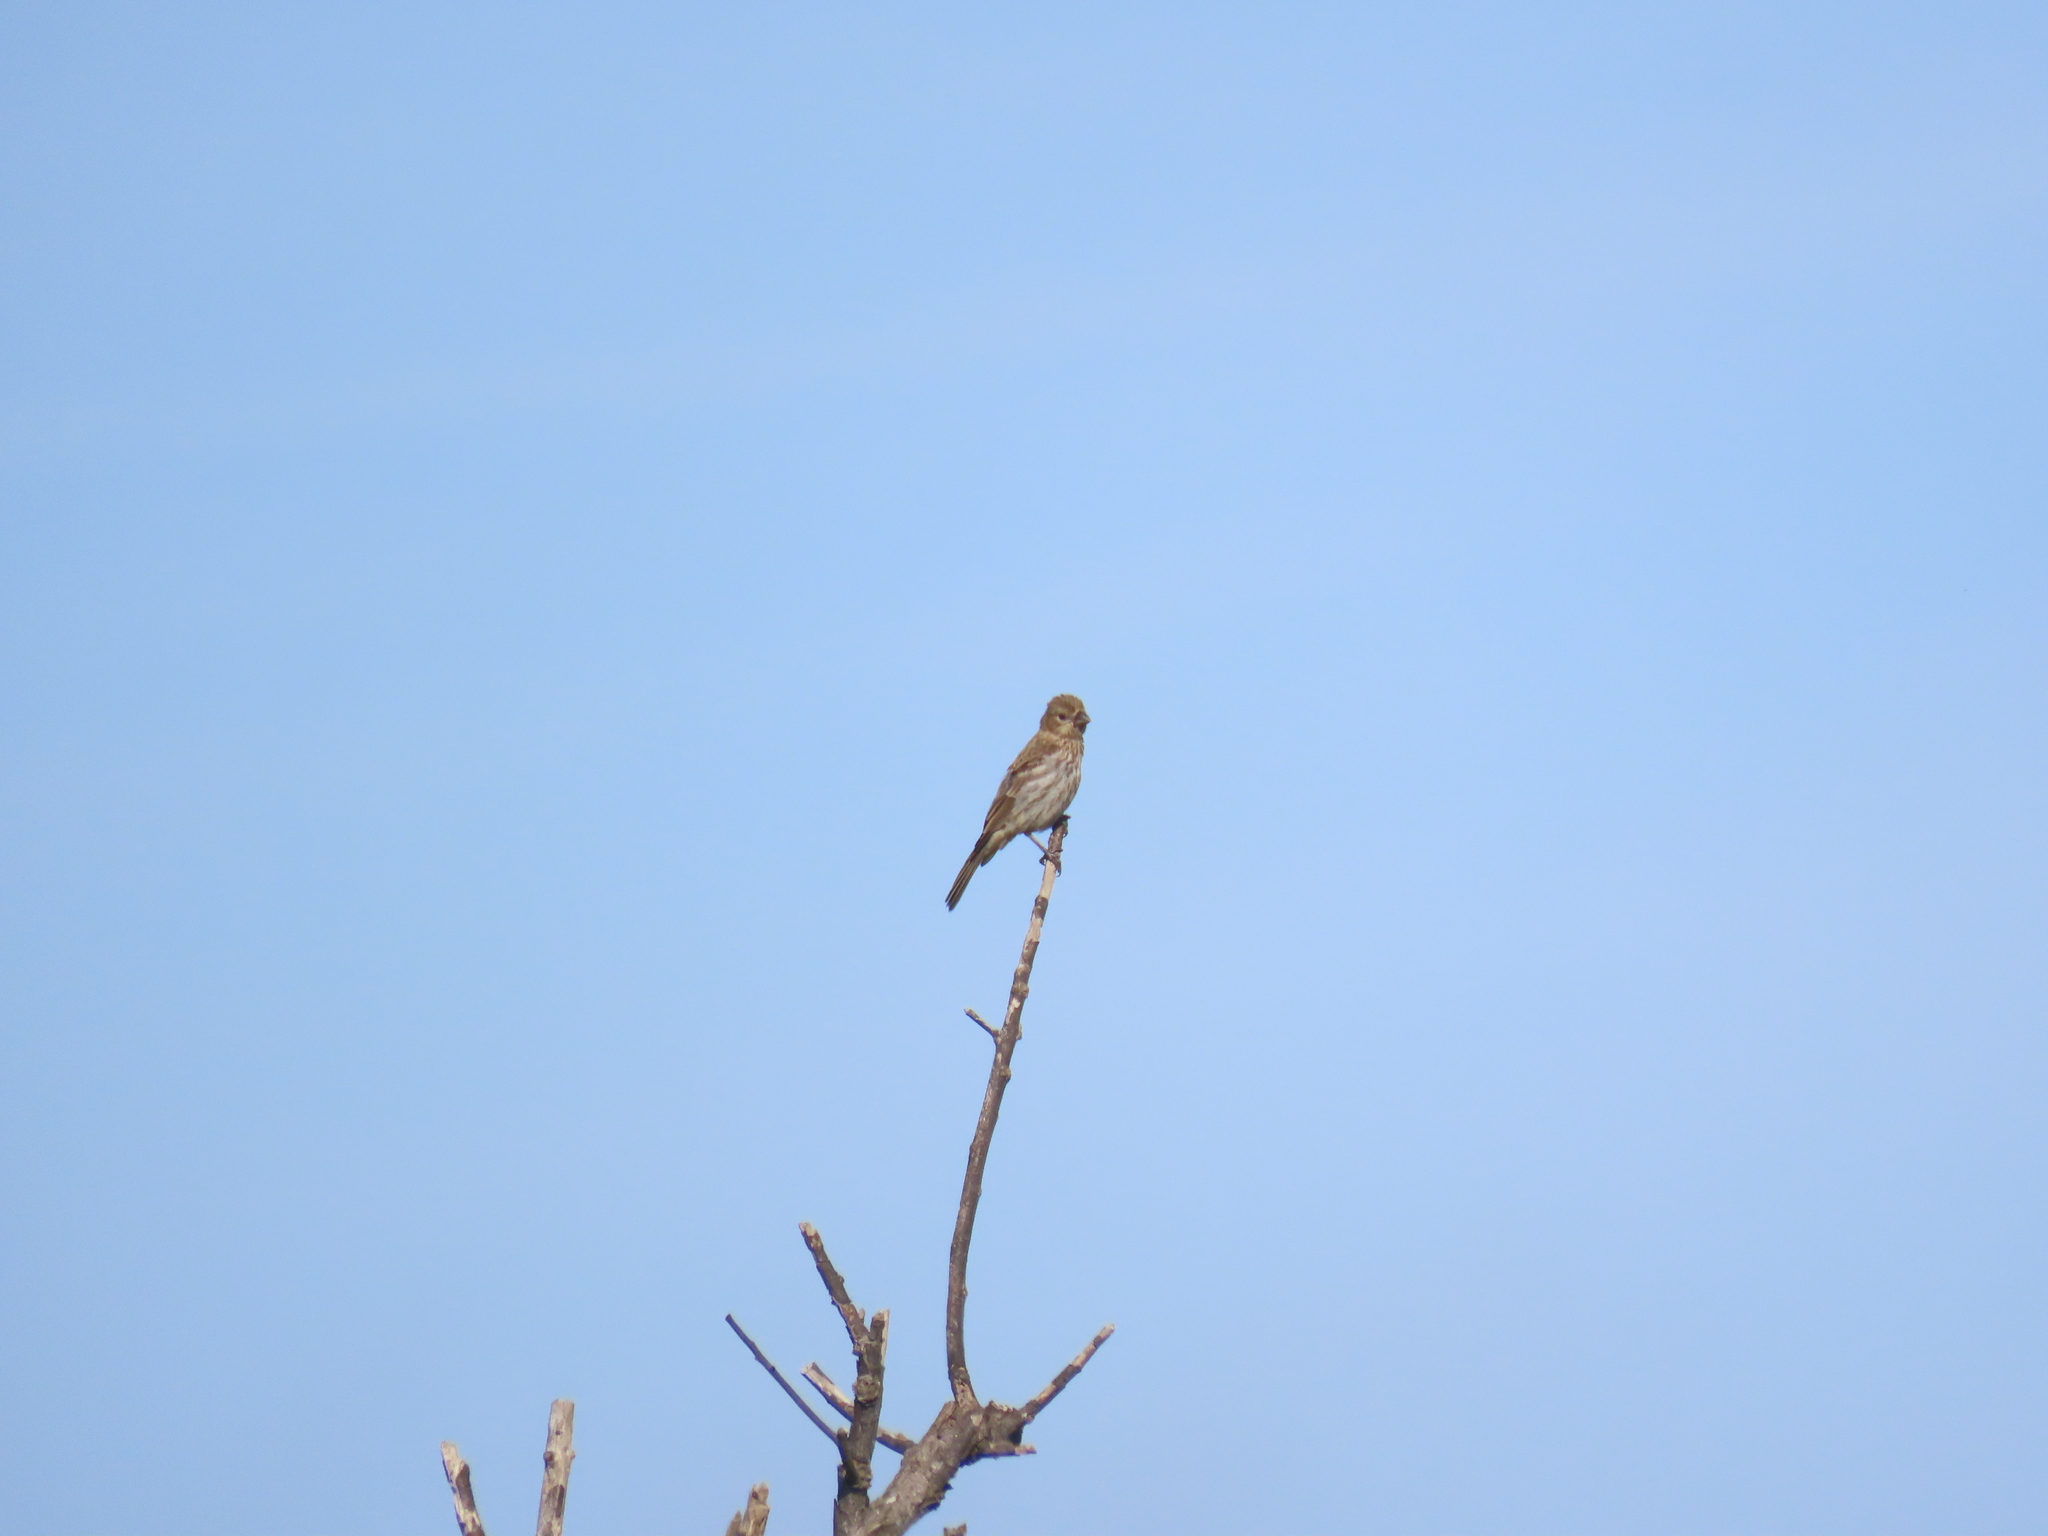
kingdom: Animalia
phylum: Chordata
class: Aves
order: Passeriformes
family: Fringillidae
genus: Haemorhous
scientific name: Haemorhous mexicanus
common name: House finch
